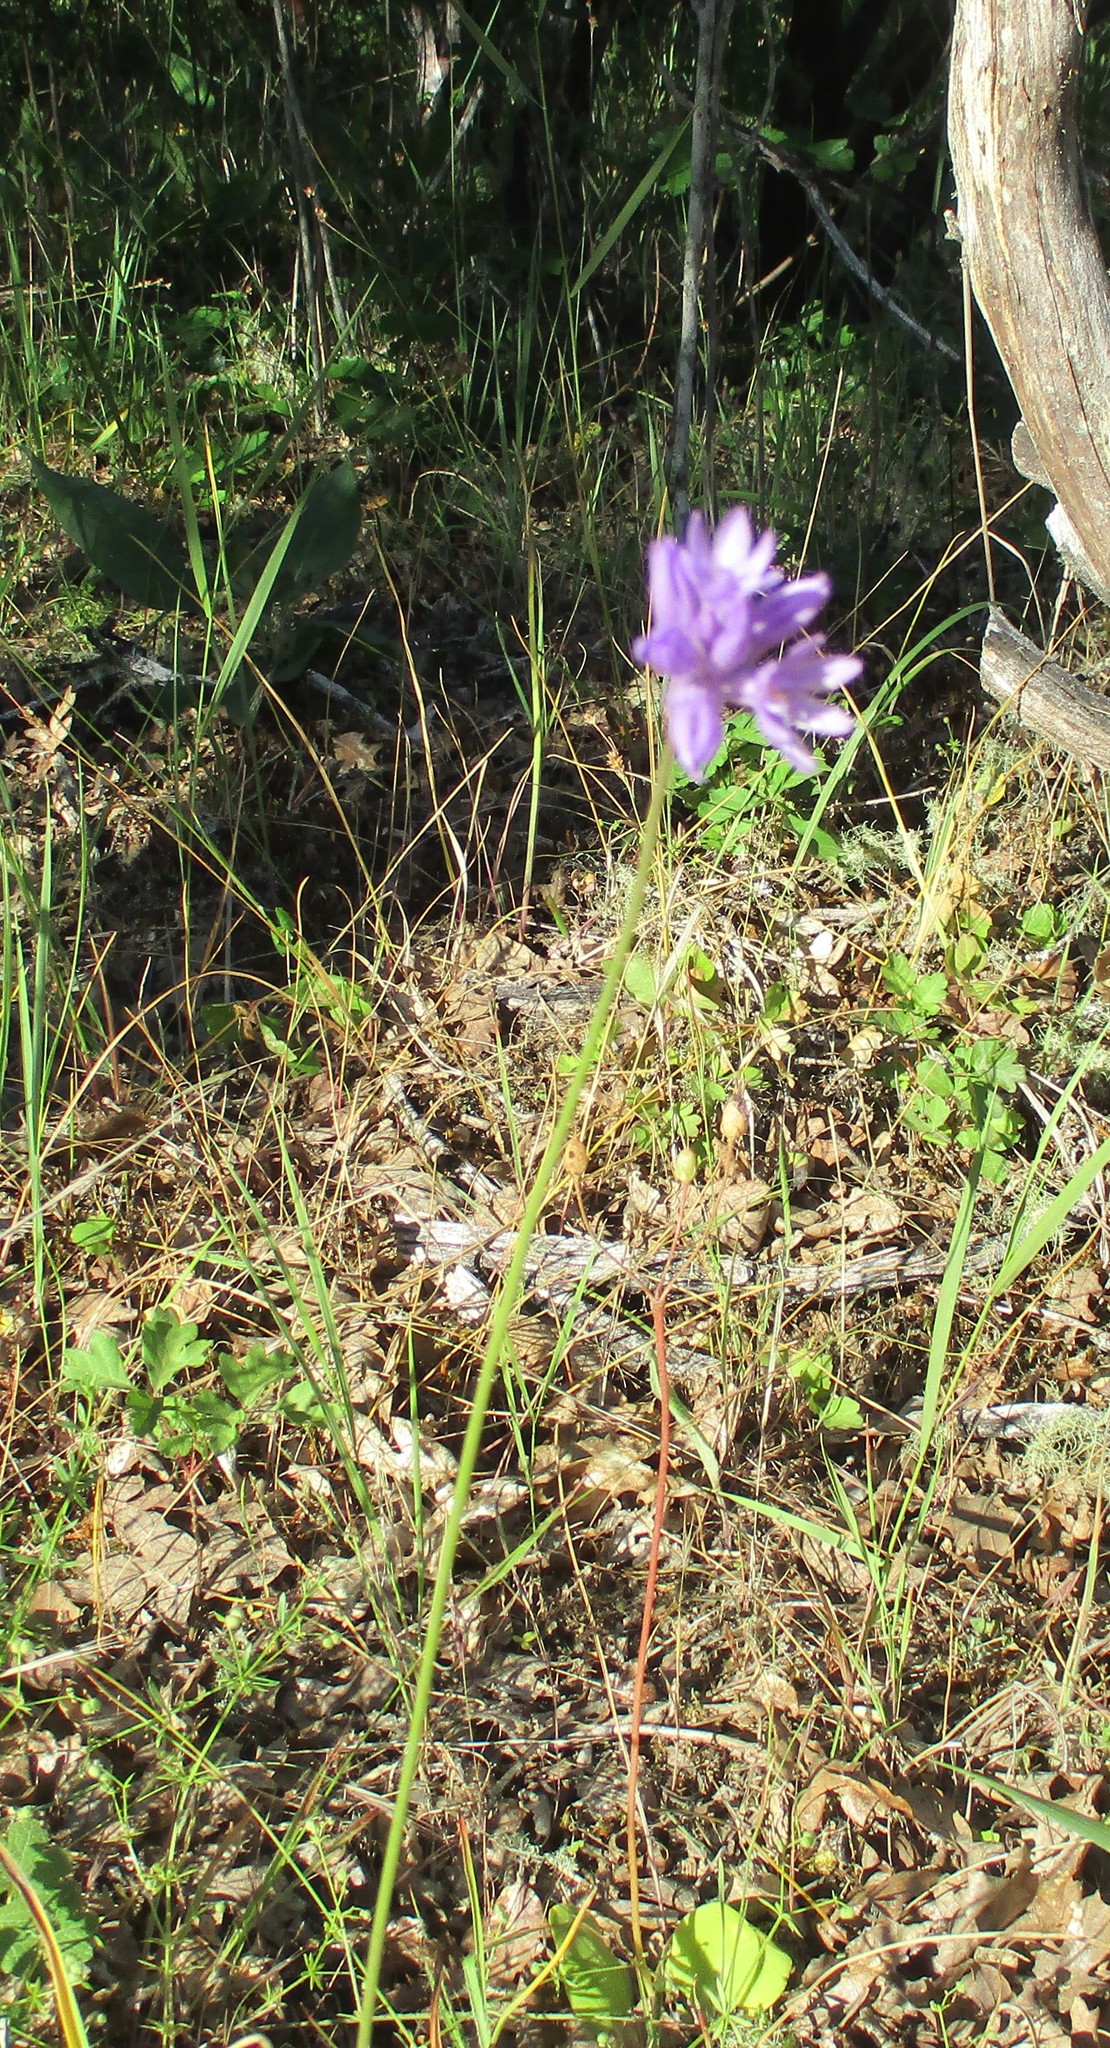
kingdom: Plantae
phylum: Tracheophyta
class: Liliopsida
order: Asparagales
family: Asparagaceae
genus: Dichelostemma
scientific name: Dichelostemma congestum
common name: Fork-tooth ookow
